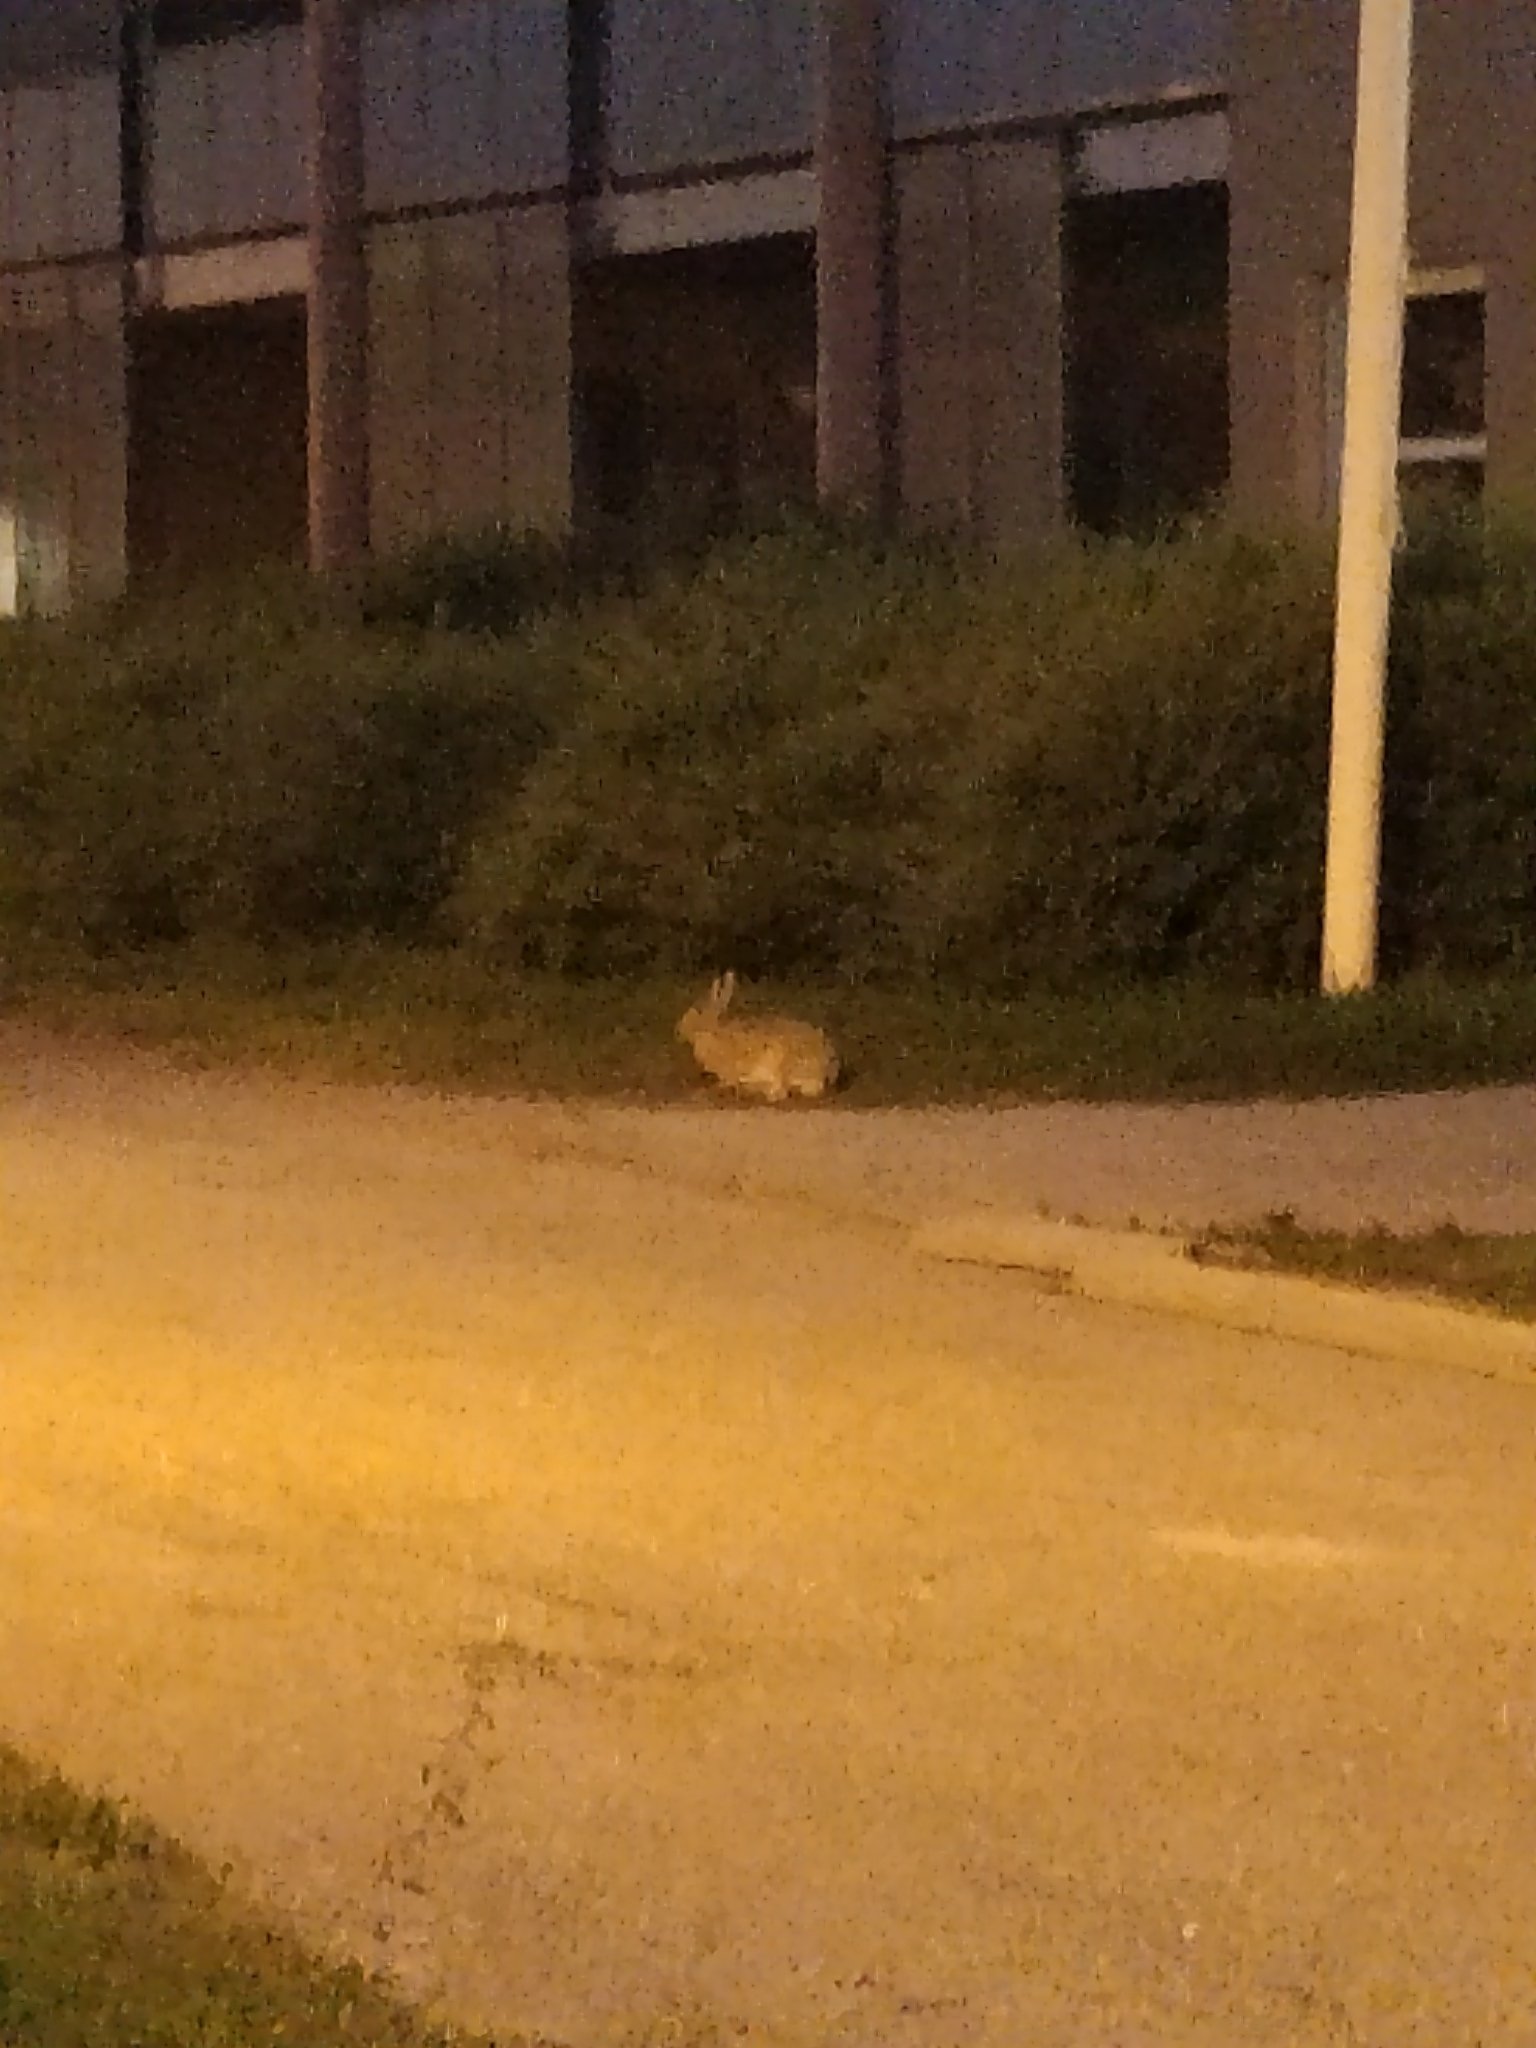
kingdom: Animalia
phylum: Chordata
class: Mammalia
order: Lagomorpha
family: Leporidae
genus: Lepus
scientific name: Lepus europaeus
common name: European hare
